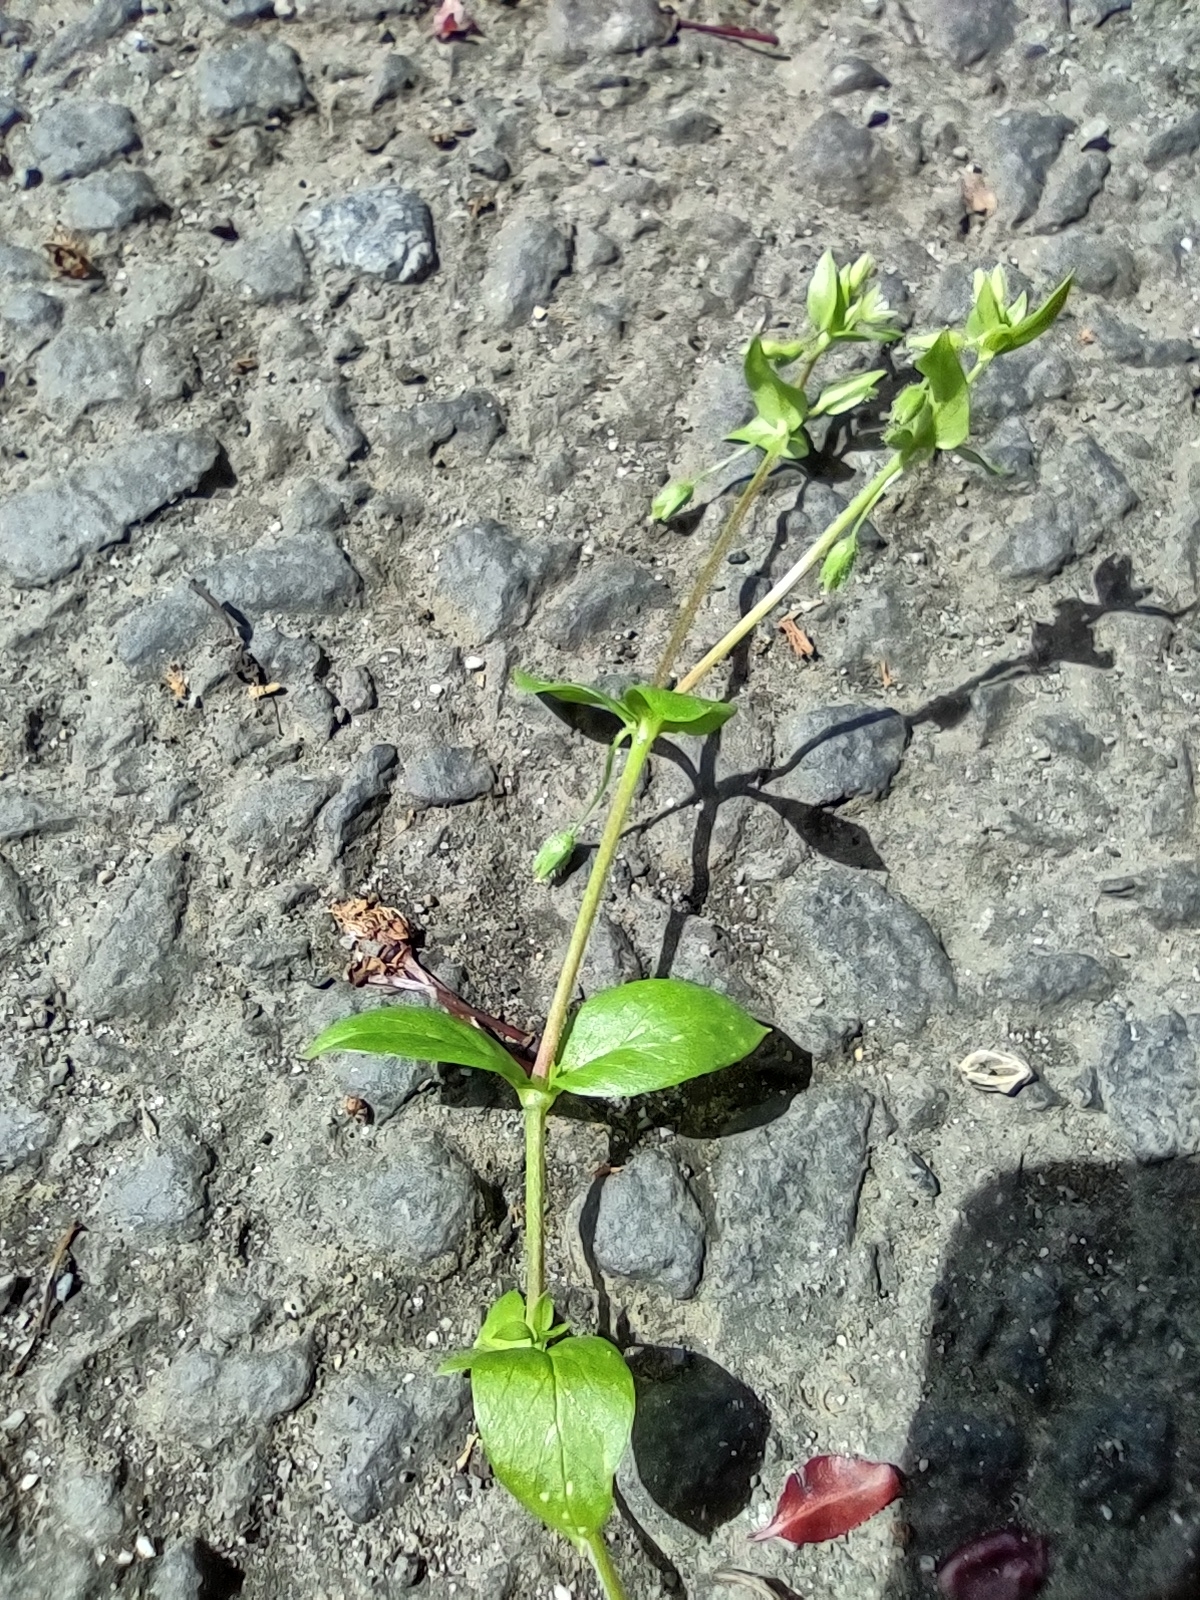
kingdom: Plantae
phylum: Tracheophyta
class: Magnoliopsida
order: Caryophyllales
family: Caryophyllaceae
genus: Stellaria
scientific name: Stellaria media
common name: Common chickweed
